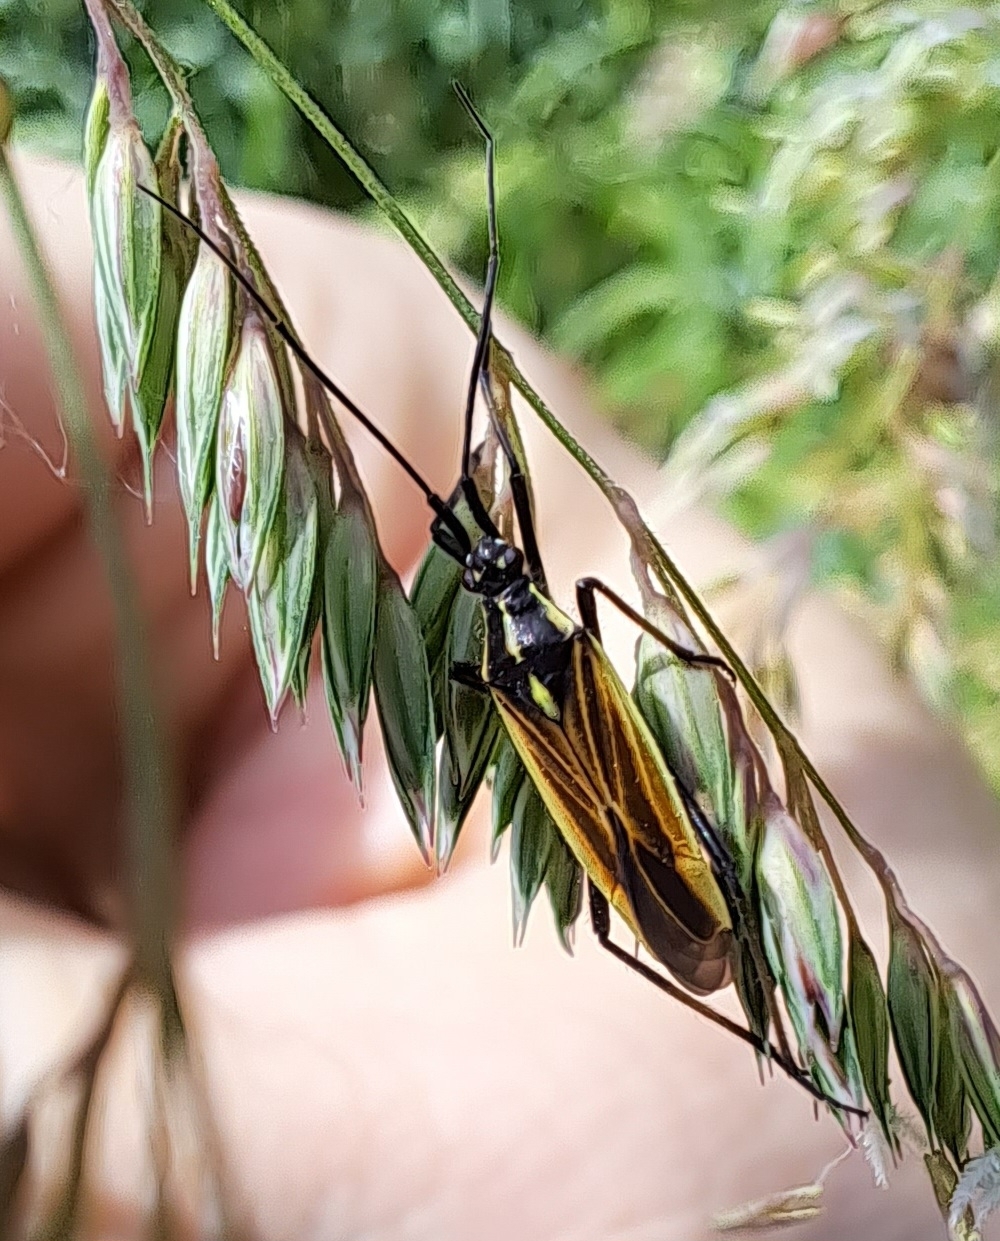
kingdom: Animalia
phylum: Arthropoda
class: Insecta
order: Hemiptera
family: Miridae
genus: Leptopterna
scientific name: Leptopterna dolabrata
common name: Meadow plant bug
